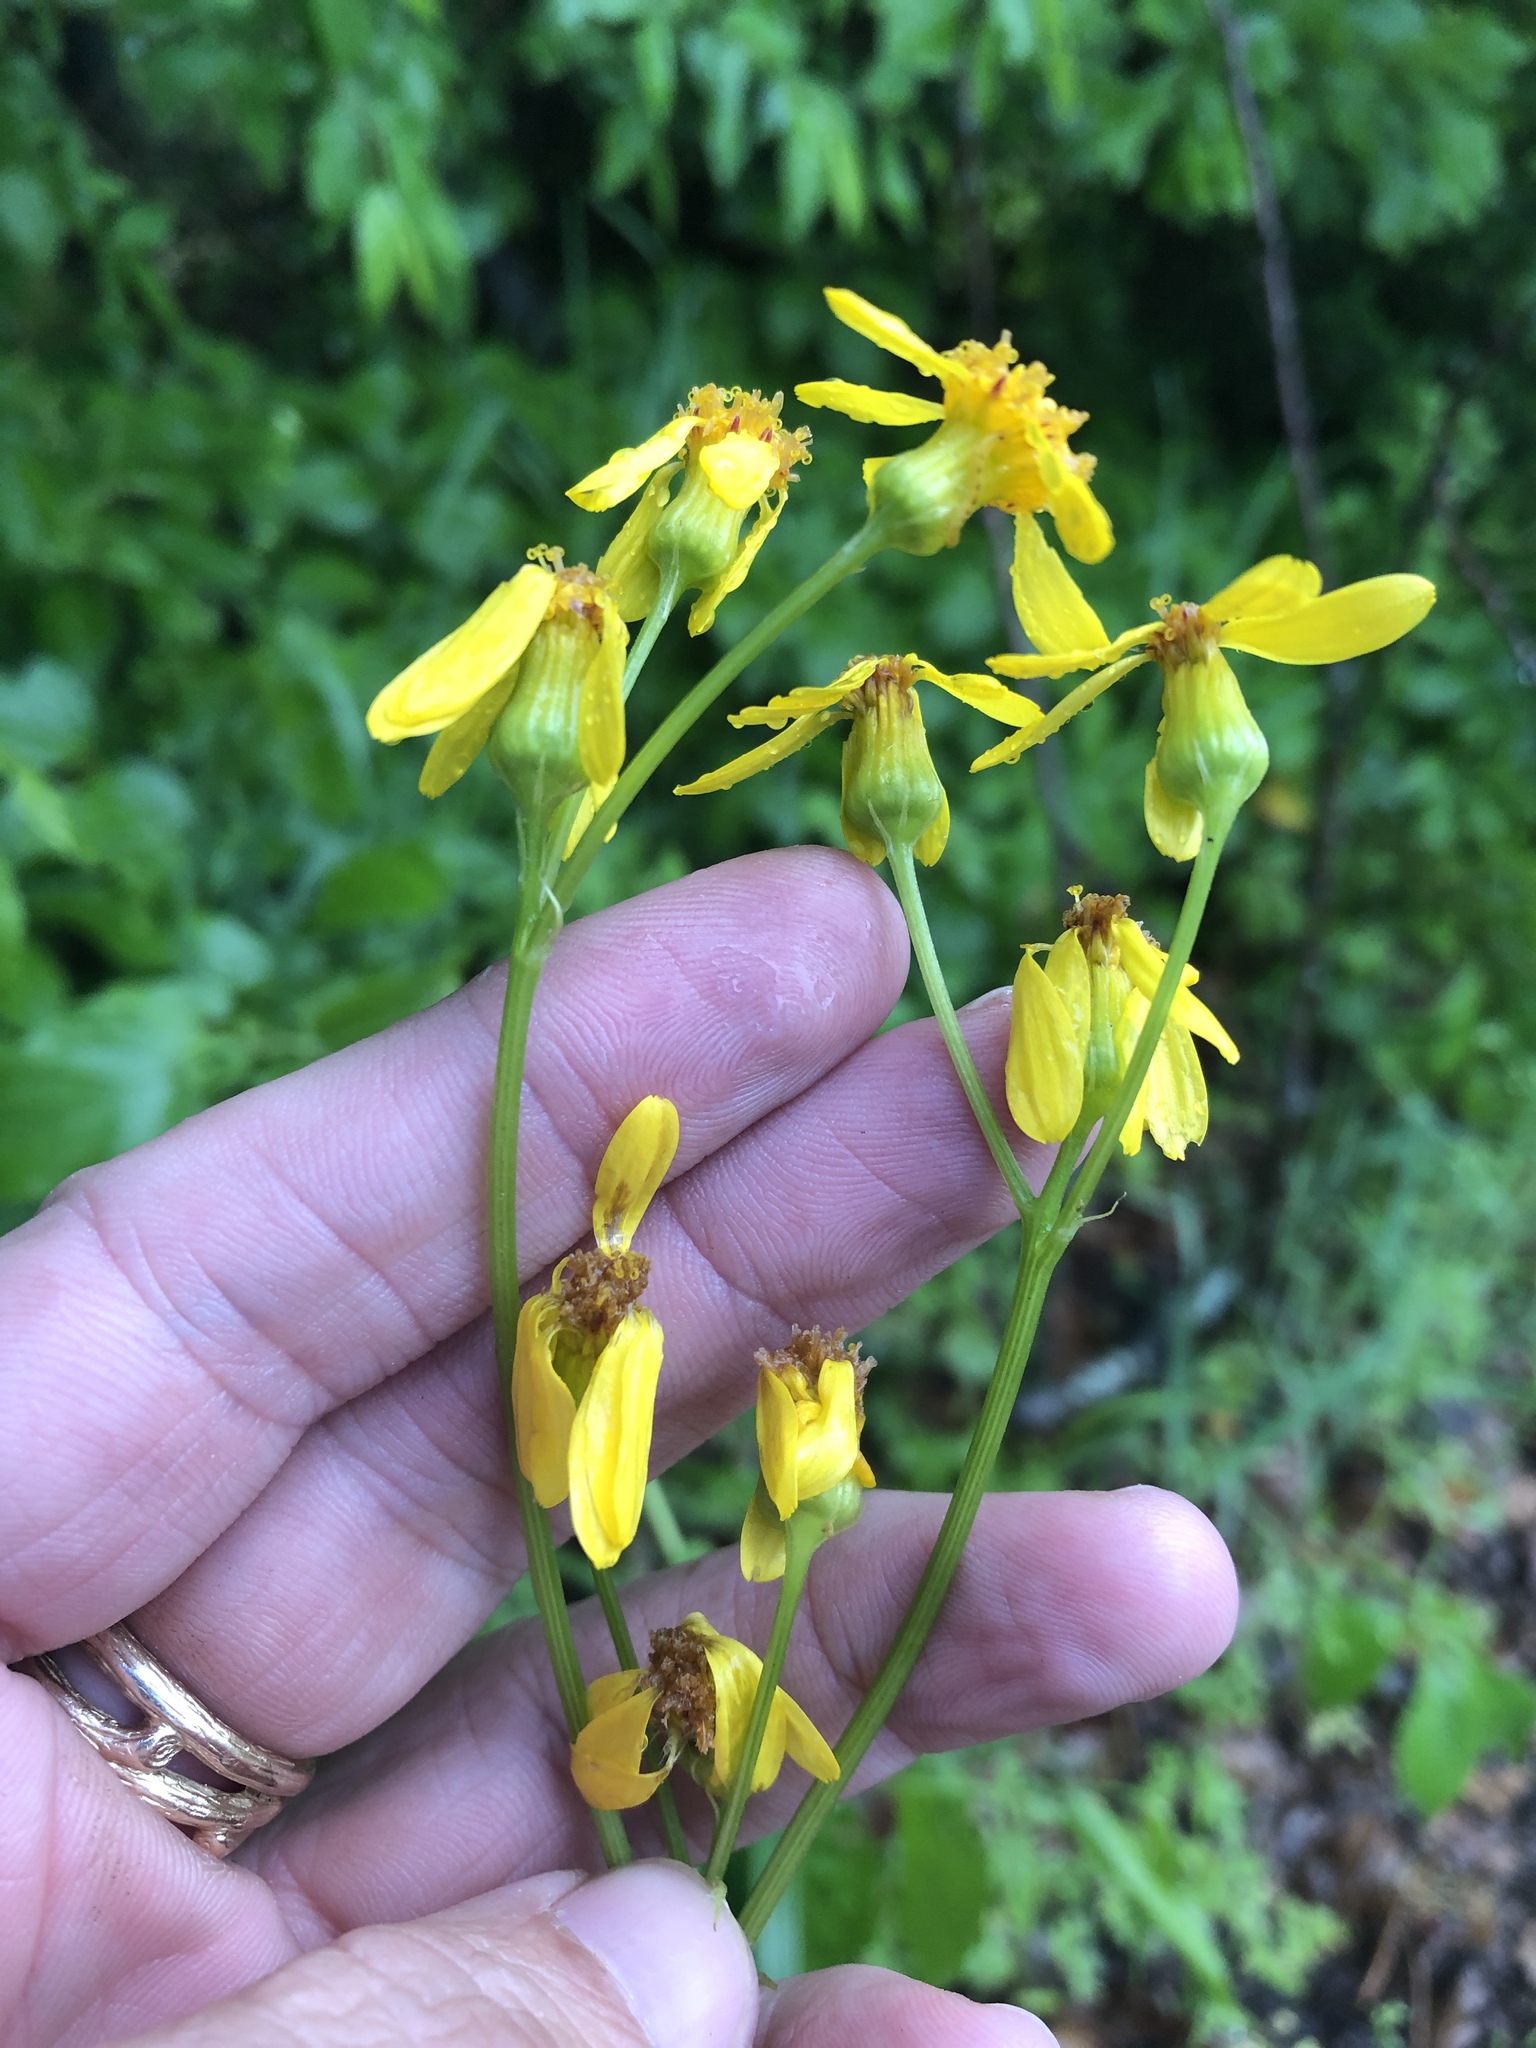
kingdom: Plantae
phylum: Tracheophyta
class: Magnoliopsida
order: Asterales
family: Asteraceae
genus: Senecio
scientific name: Senecio ampullaceus
